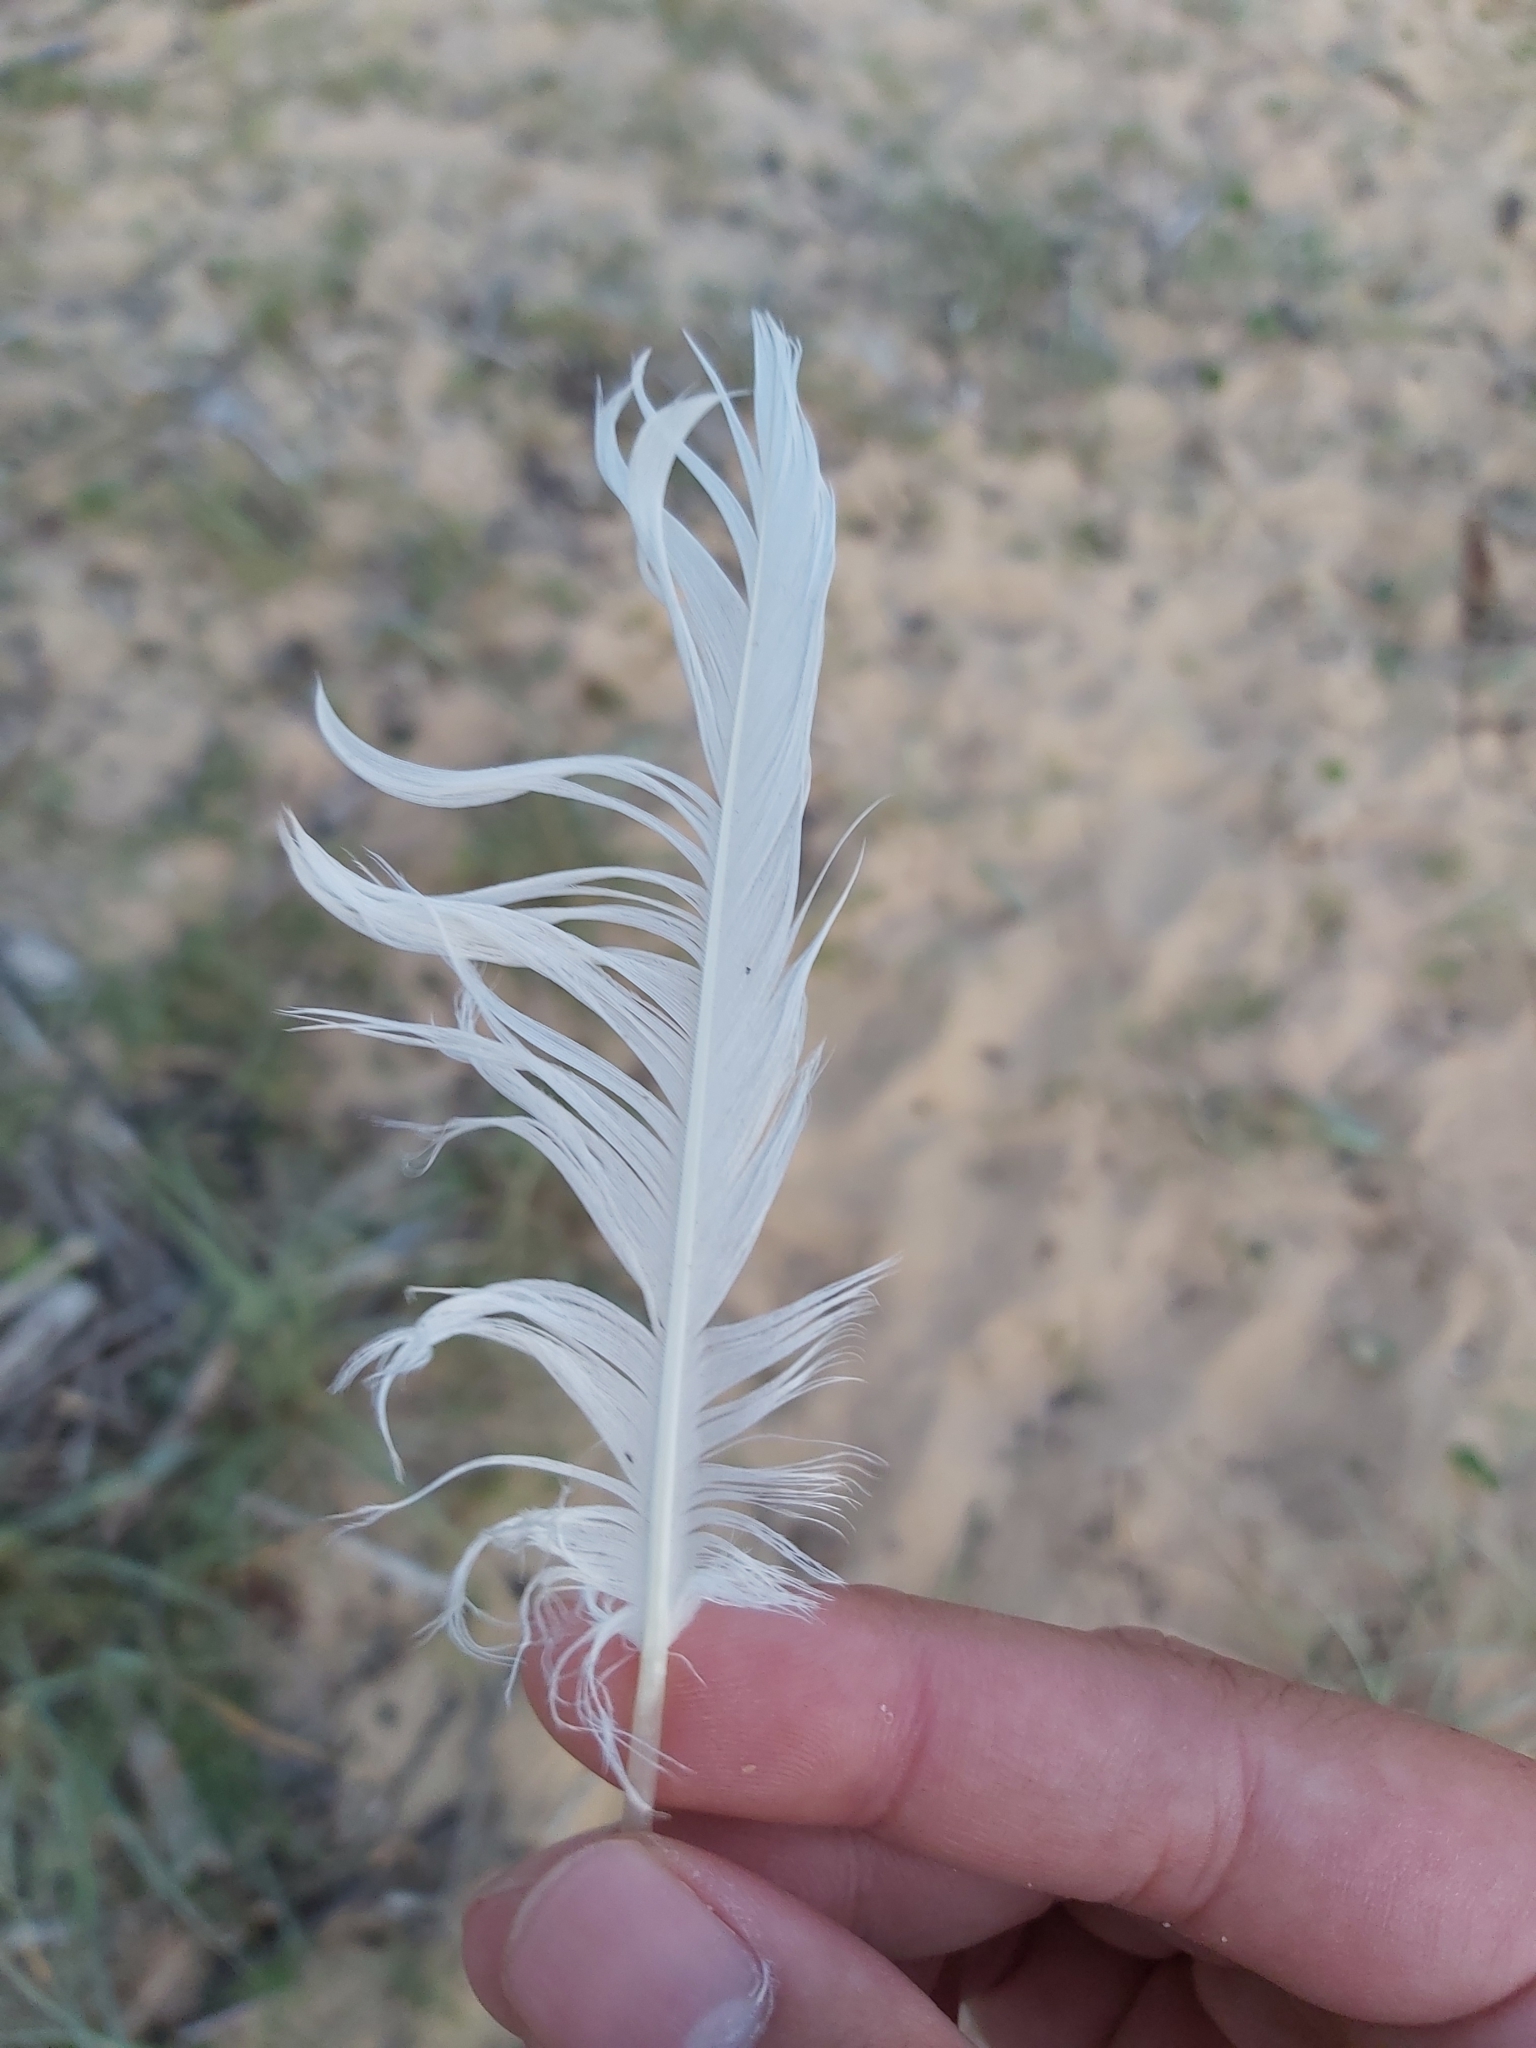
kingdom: Animalia
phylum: Chordata
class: Aves
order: Charadriiformes
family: Laridae
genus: Chroicocephalus
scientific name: Chroicocephalus novaehollandiae
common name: Silver gull
